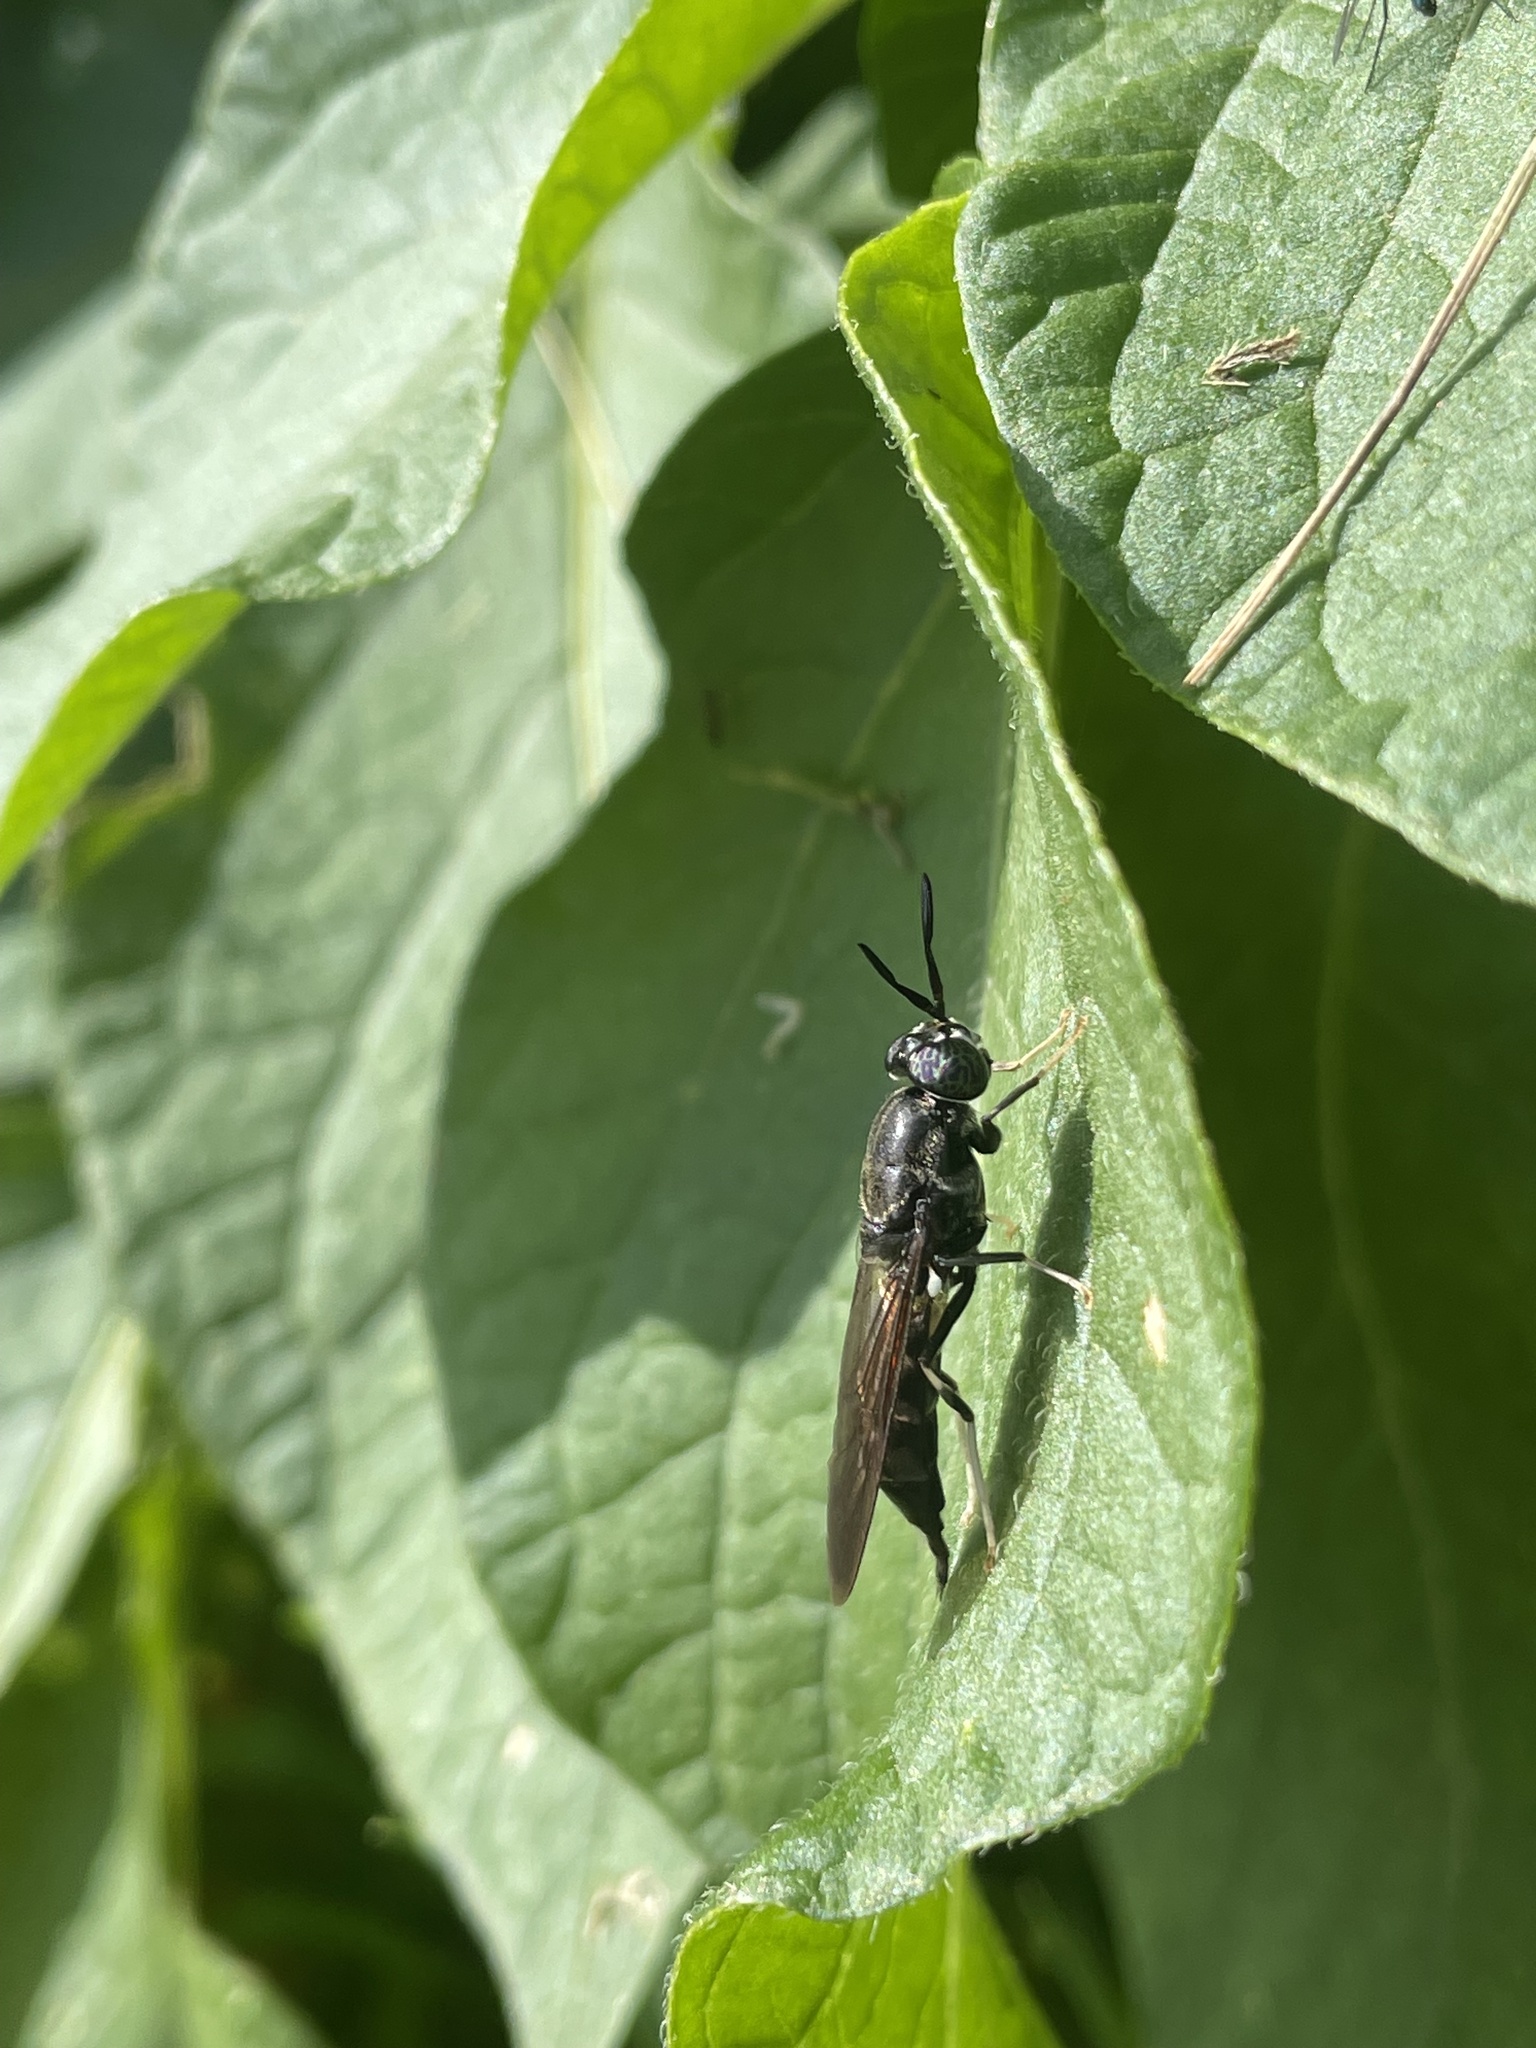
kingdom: Animalia
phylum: Arthropoda
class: Insecta
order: Diptera
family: Stratiomyidae
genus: Hermetia
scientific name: Hermetia illucens
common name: Black soldier fly
